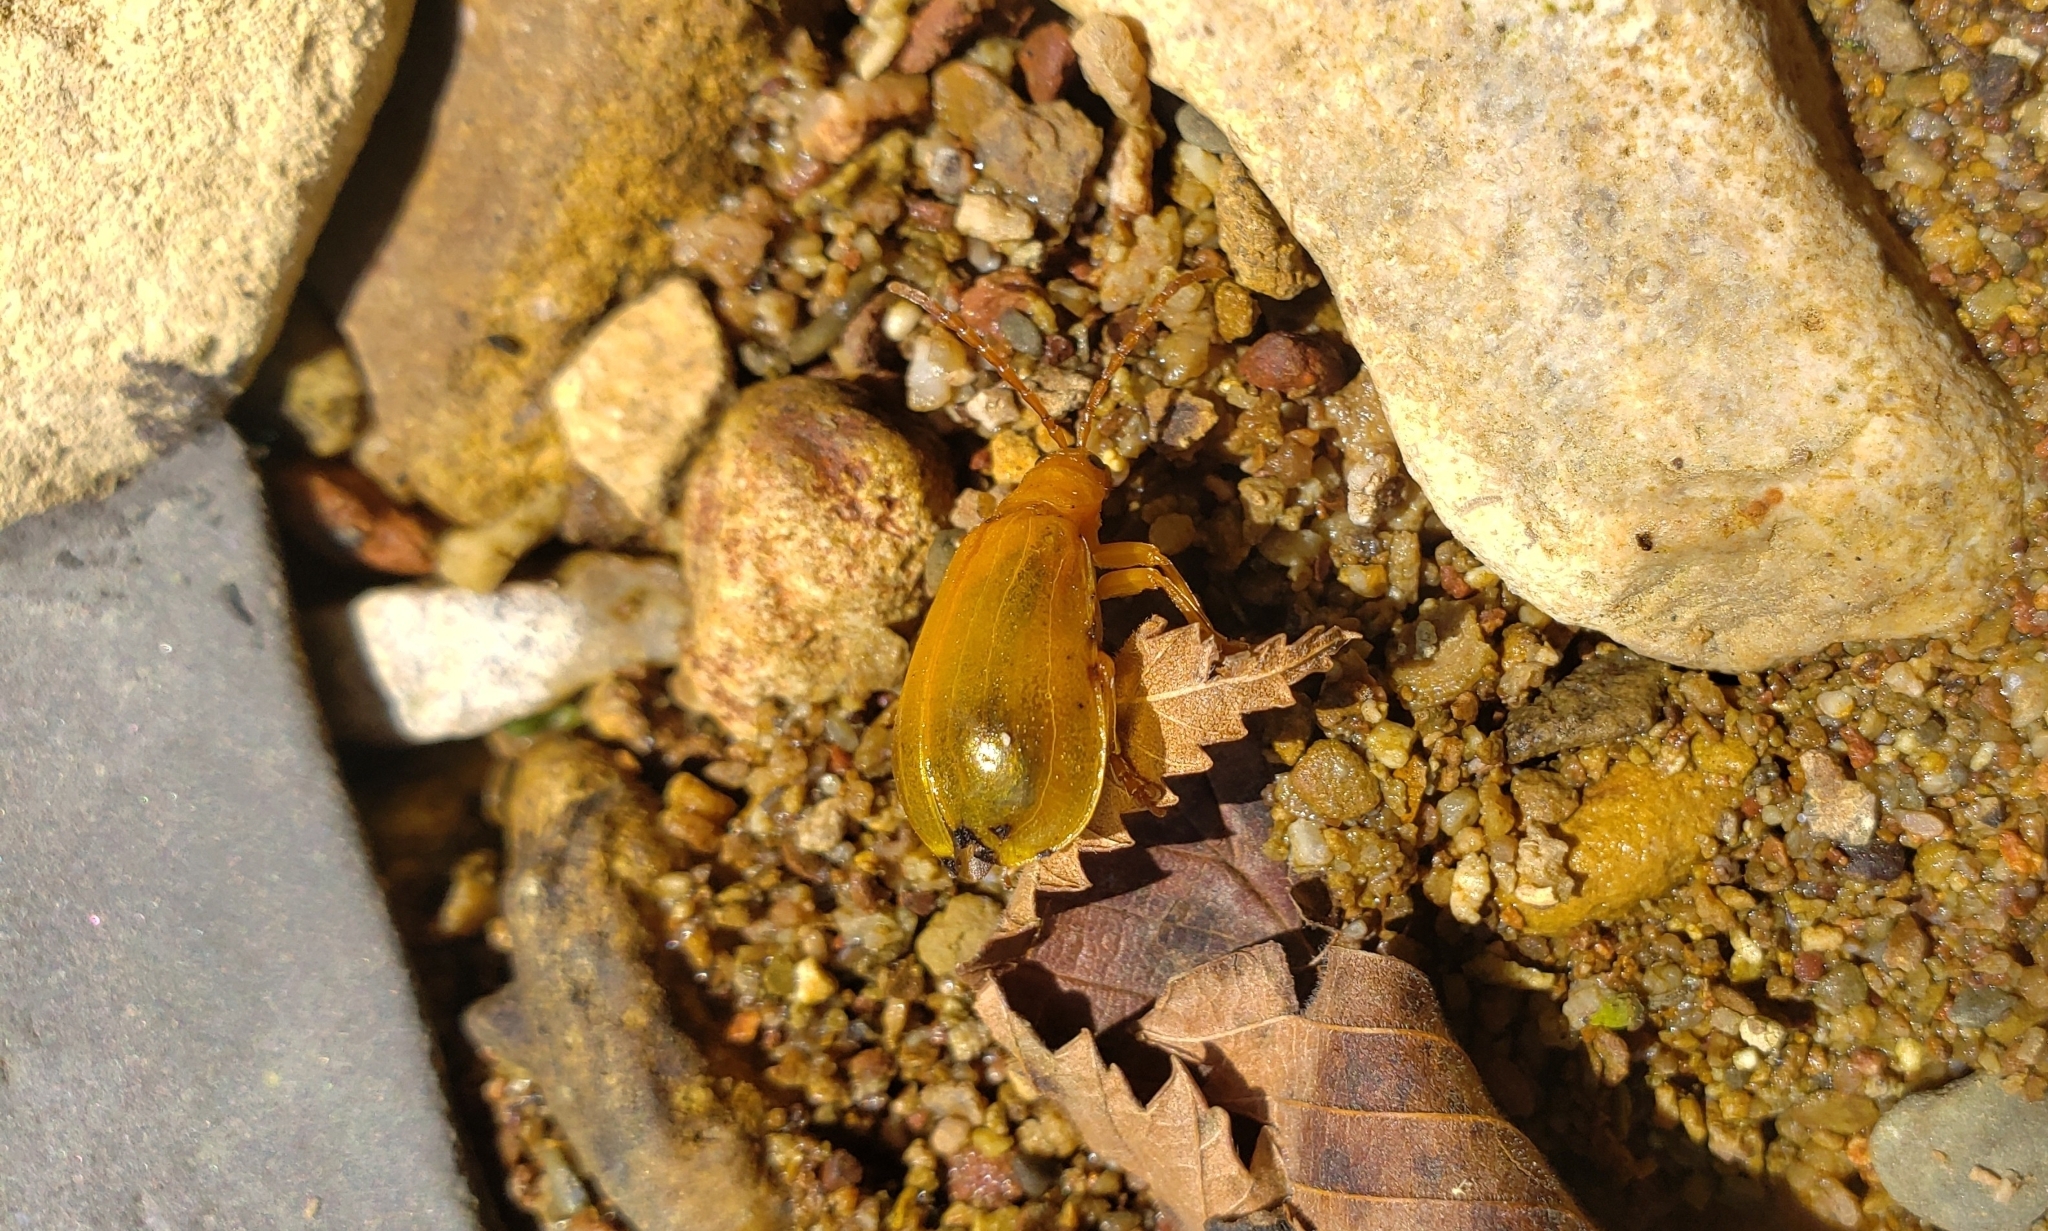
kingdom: Animalia
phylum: Arthropoda
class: Insecta
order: Coleoptera
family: Chrysomelidae
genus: Monocesta
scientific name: Monocesta coryli
